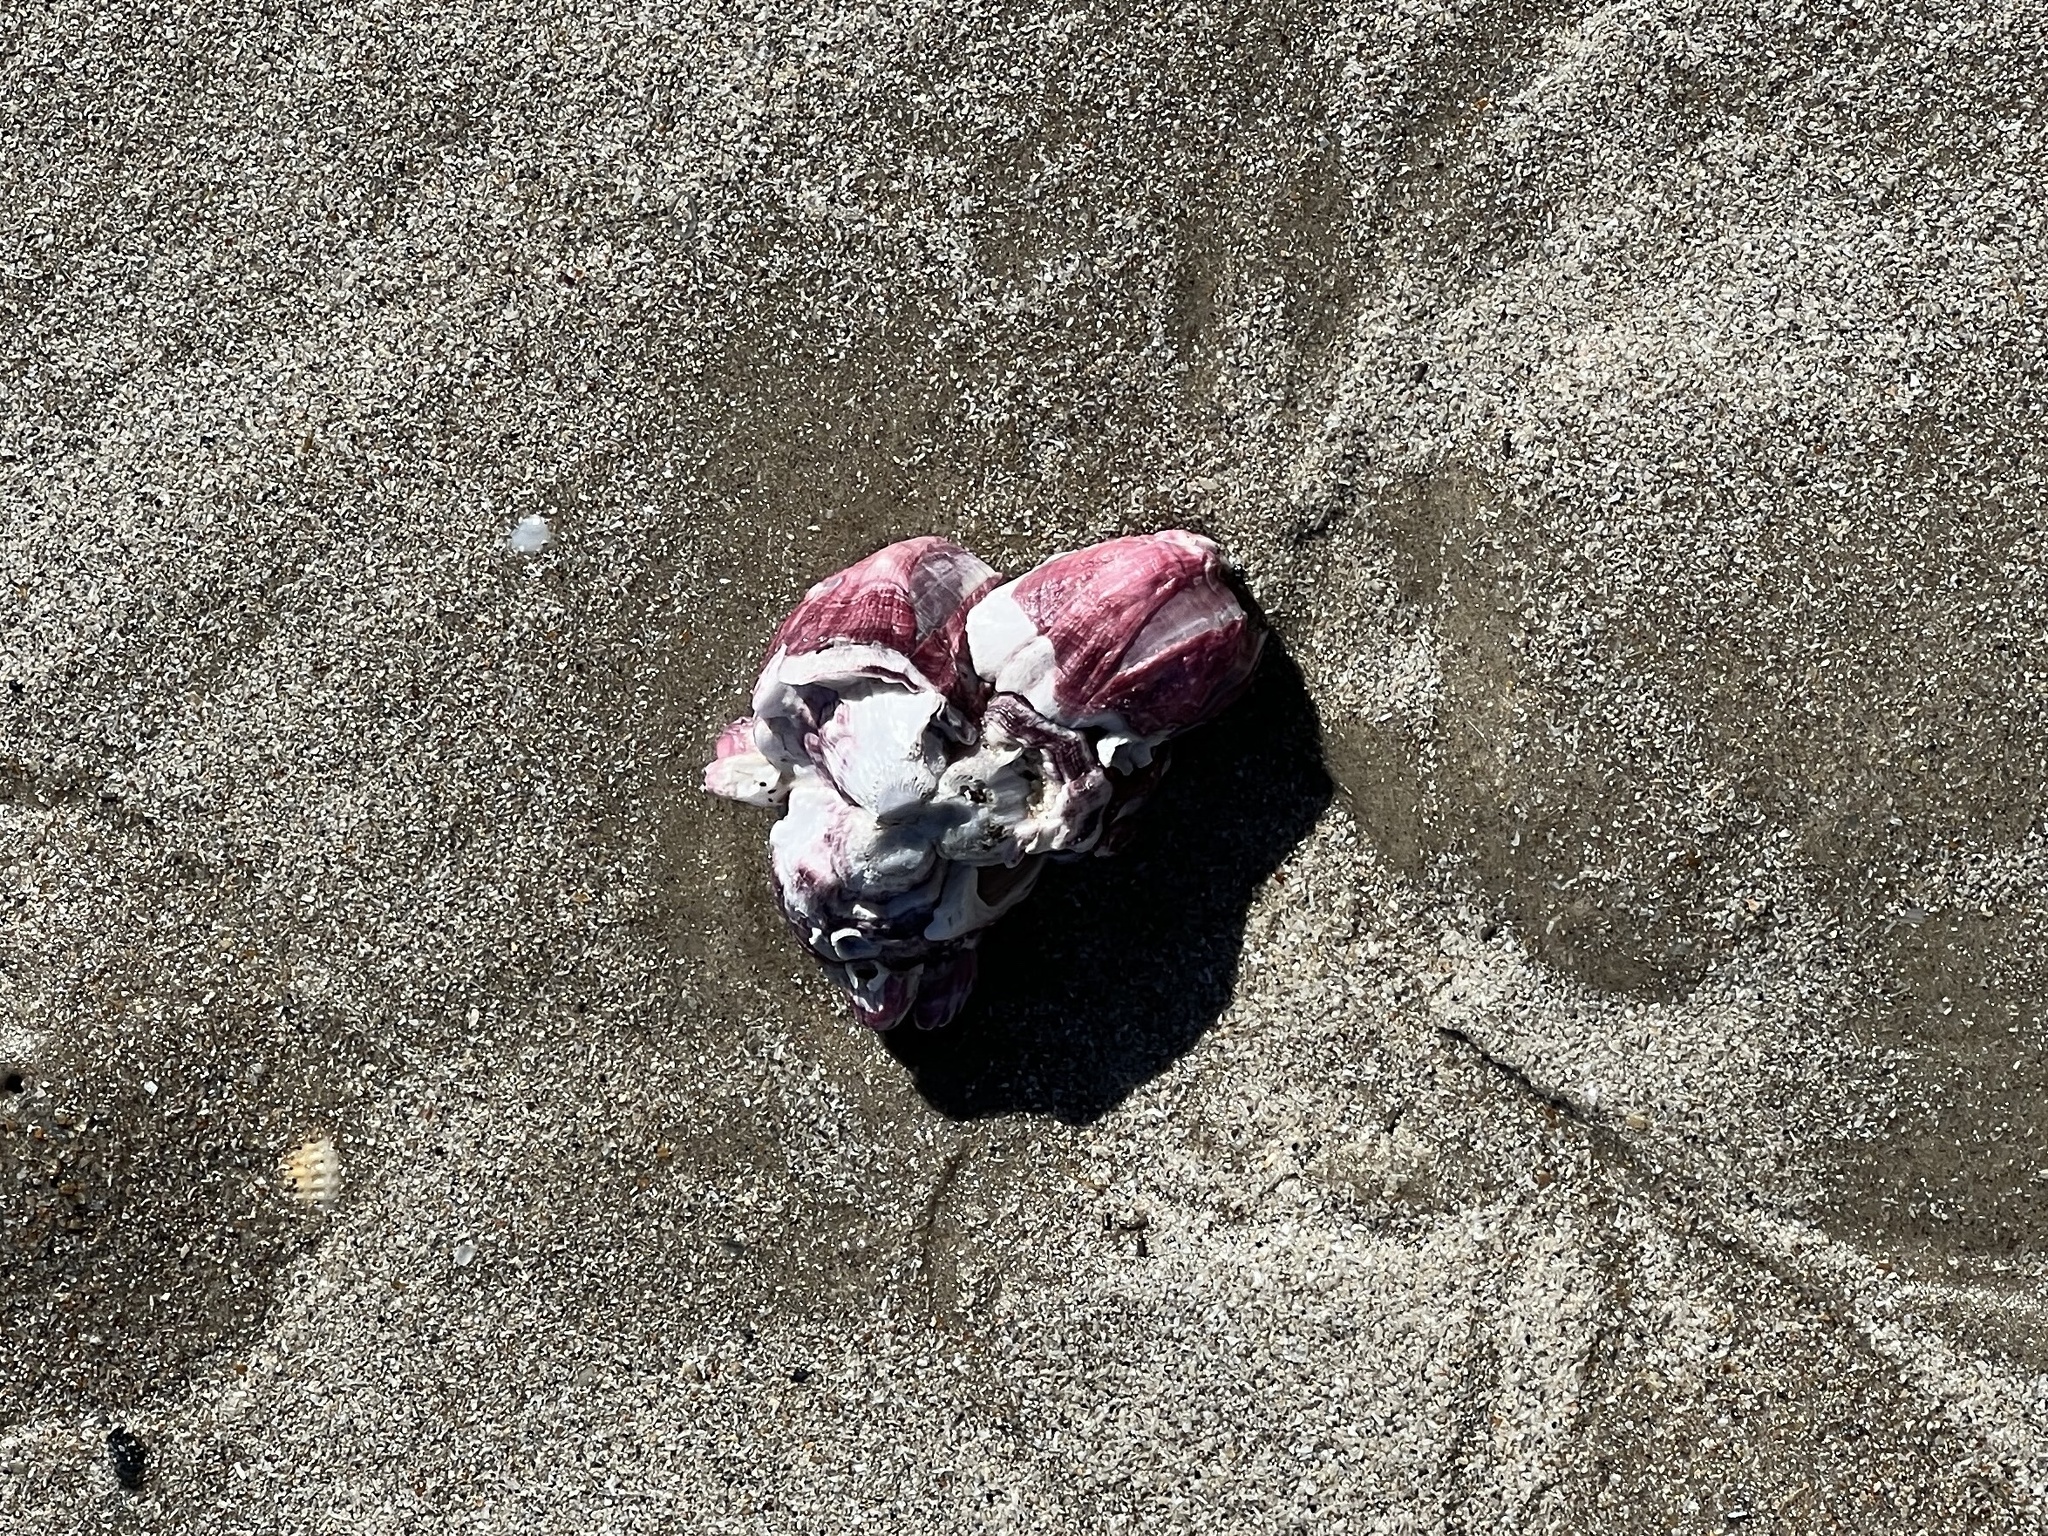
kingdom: Animalia
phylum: Arthropoda
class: Maxillopoda
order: Sessilia
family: Balanidae
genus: Megabalanus
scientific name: Megabalanus tintinnabulum
